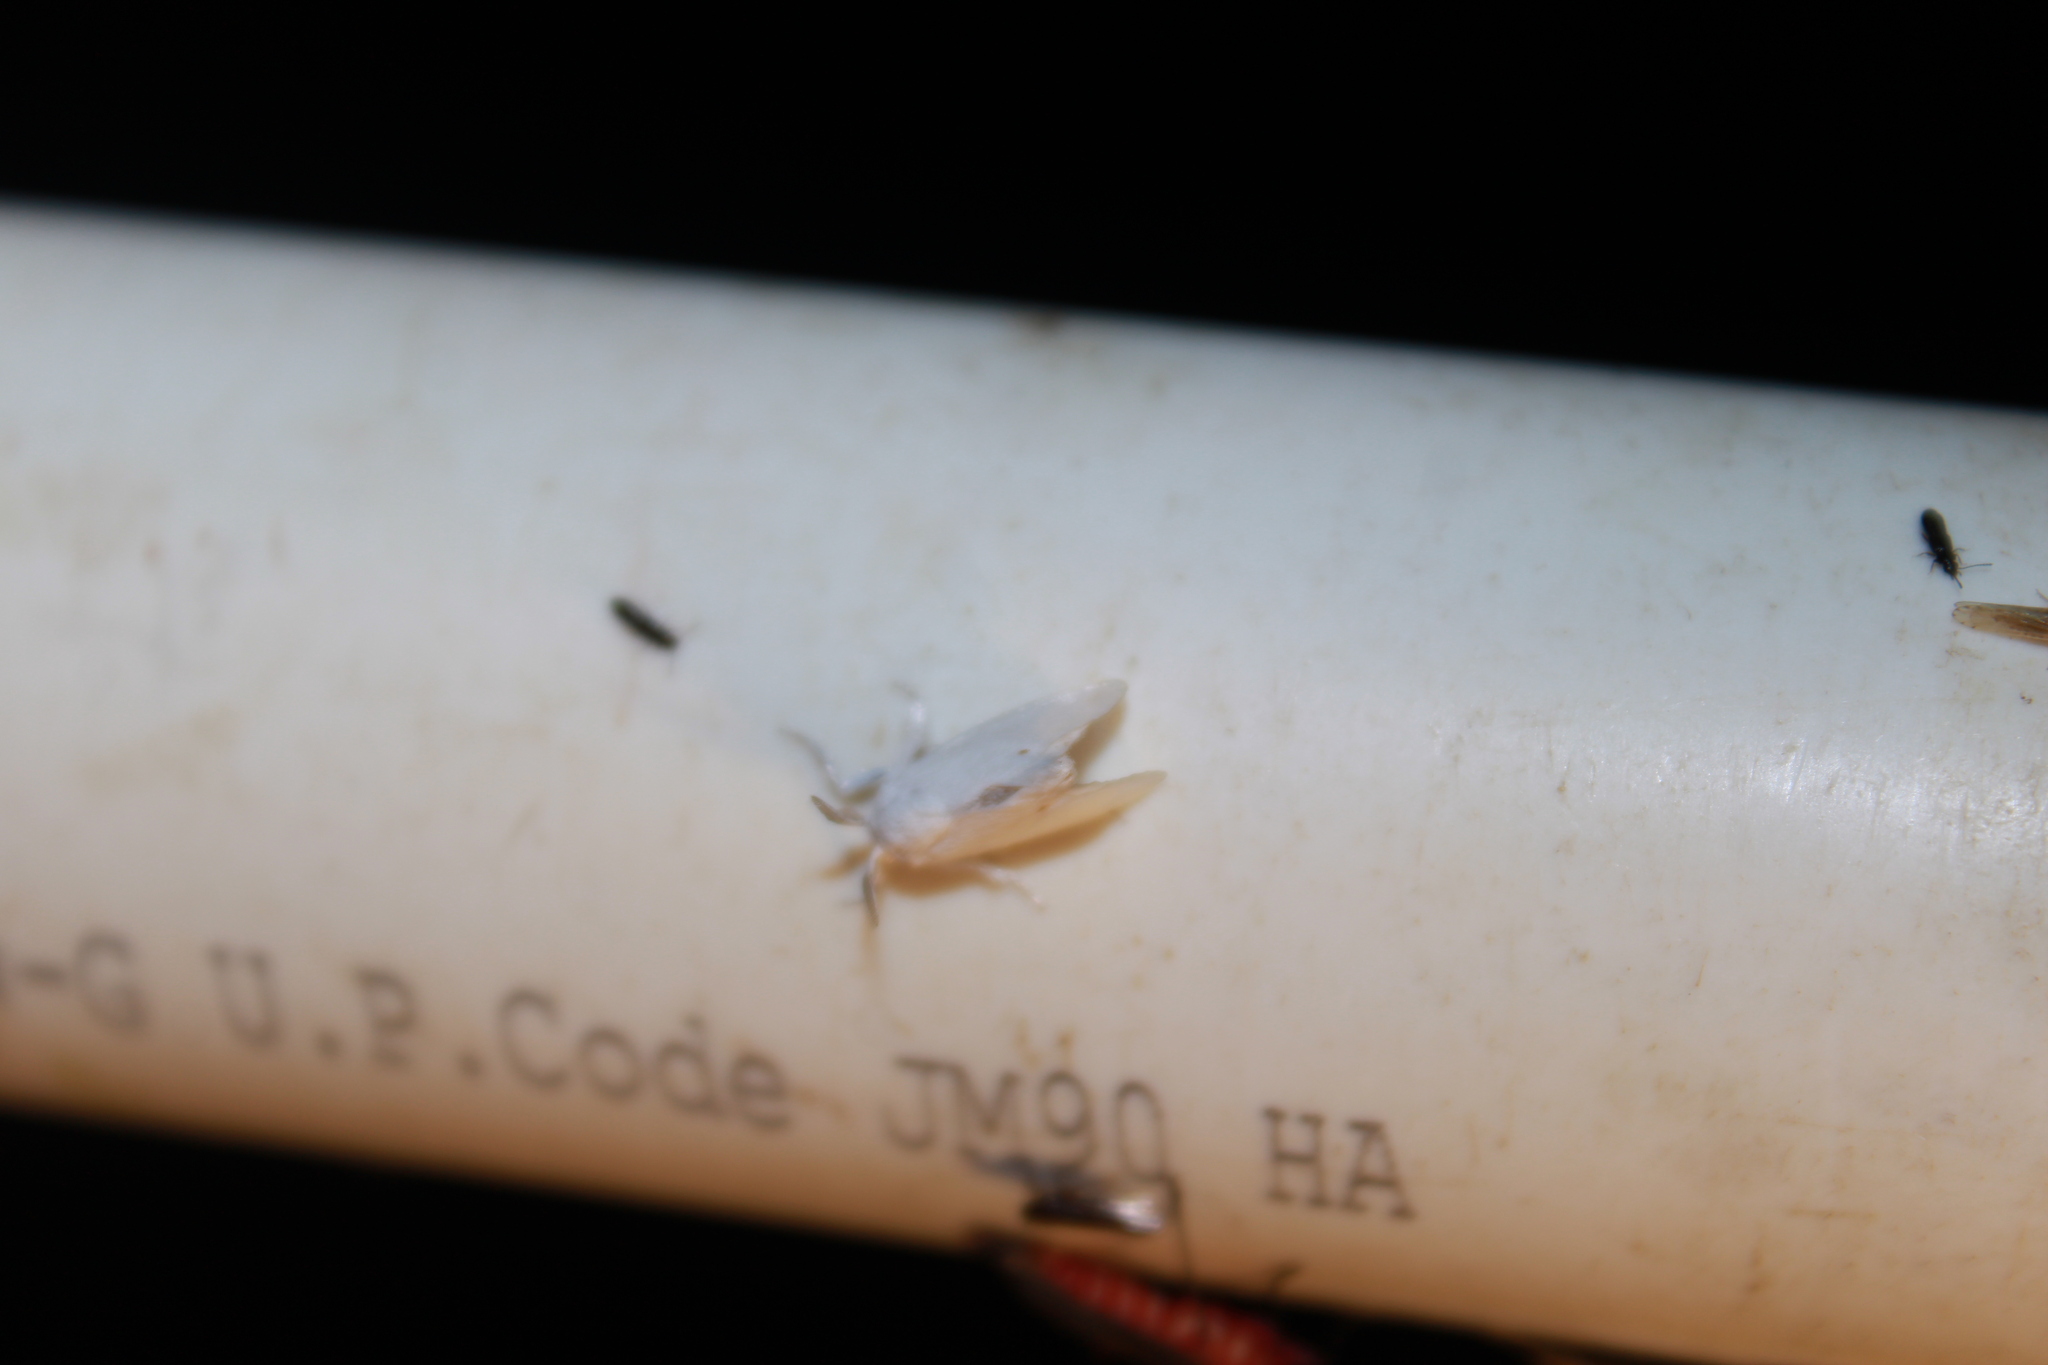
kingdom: Animalia
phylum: Arthropoda
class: Insecta
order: Lepidoptera
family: Limacodidae
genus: Alarodia
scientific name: Alarodia slossoniae
